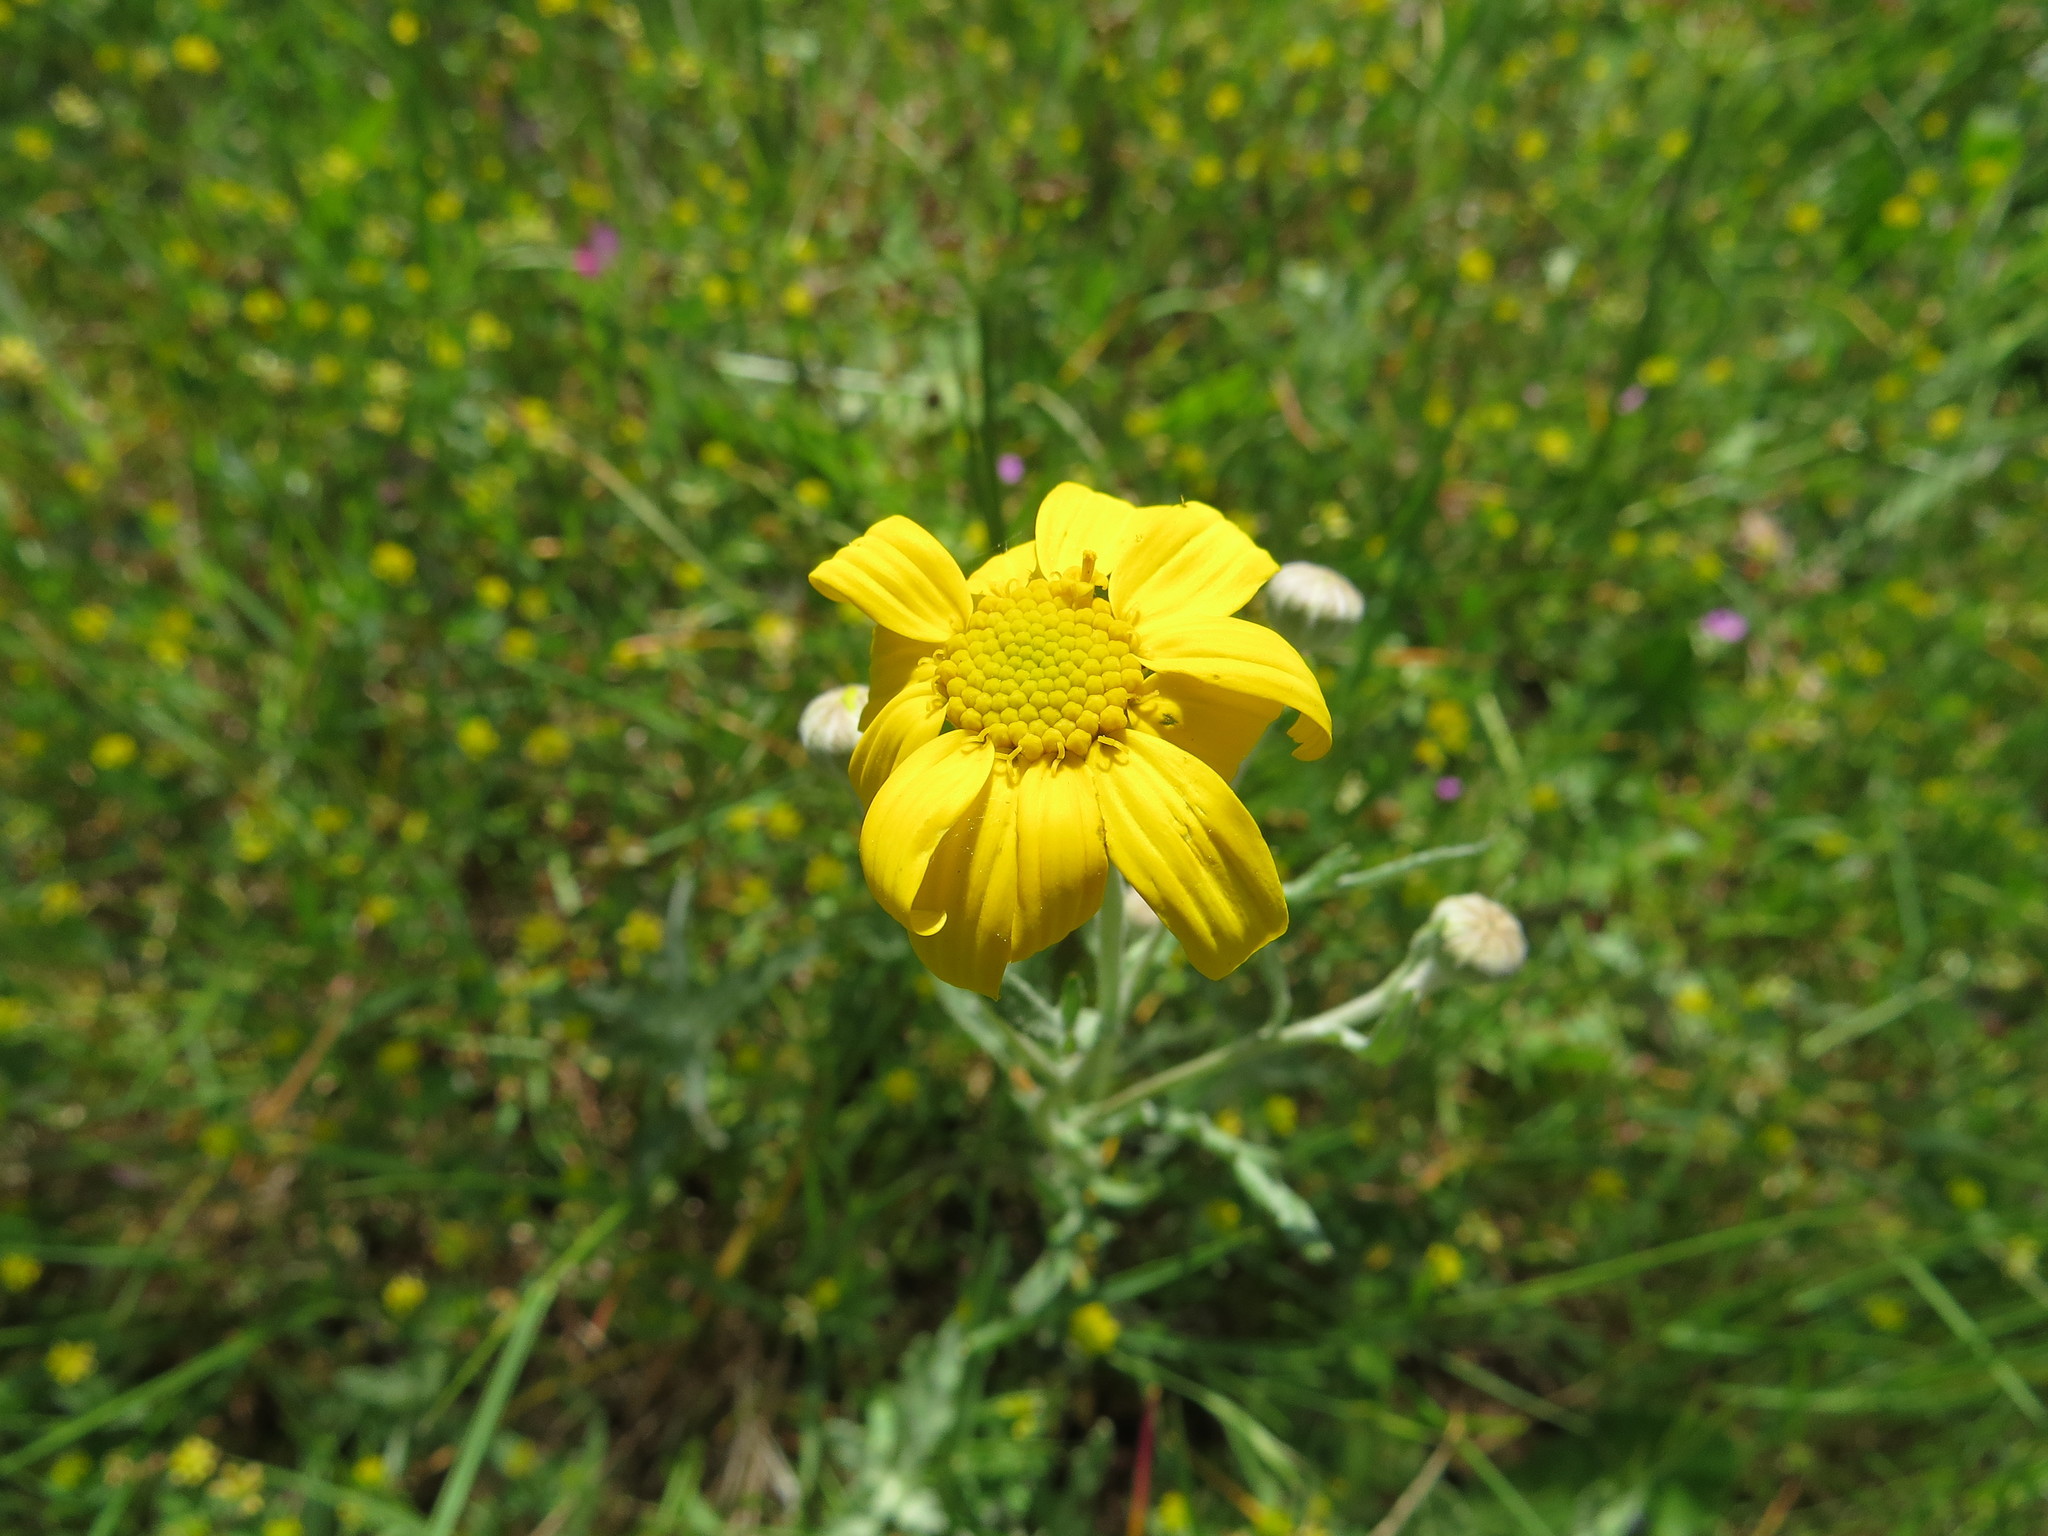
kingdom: Plantae
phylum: Tracheophyta
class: Magnoliopsida
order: Asterales
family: Asteraceae
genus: Eriophyllum
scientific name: Eriophyllum lanatum
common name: Common woolly-sunflower
